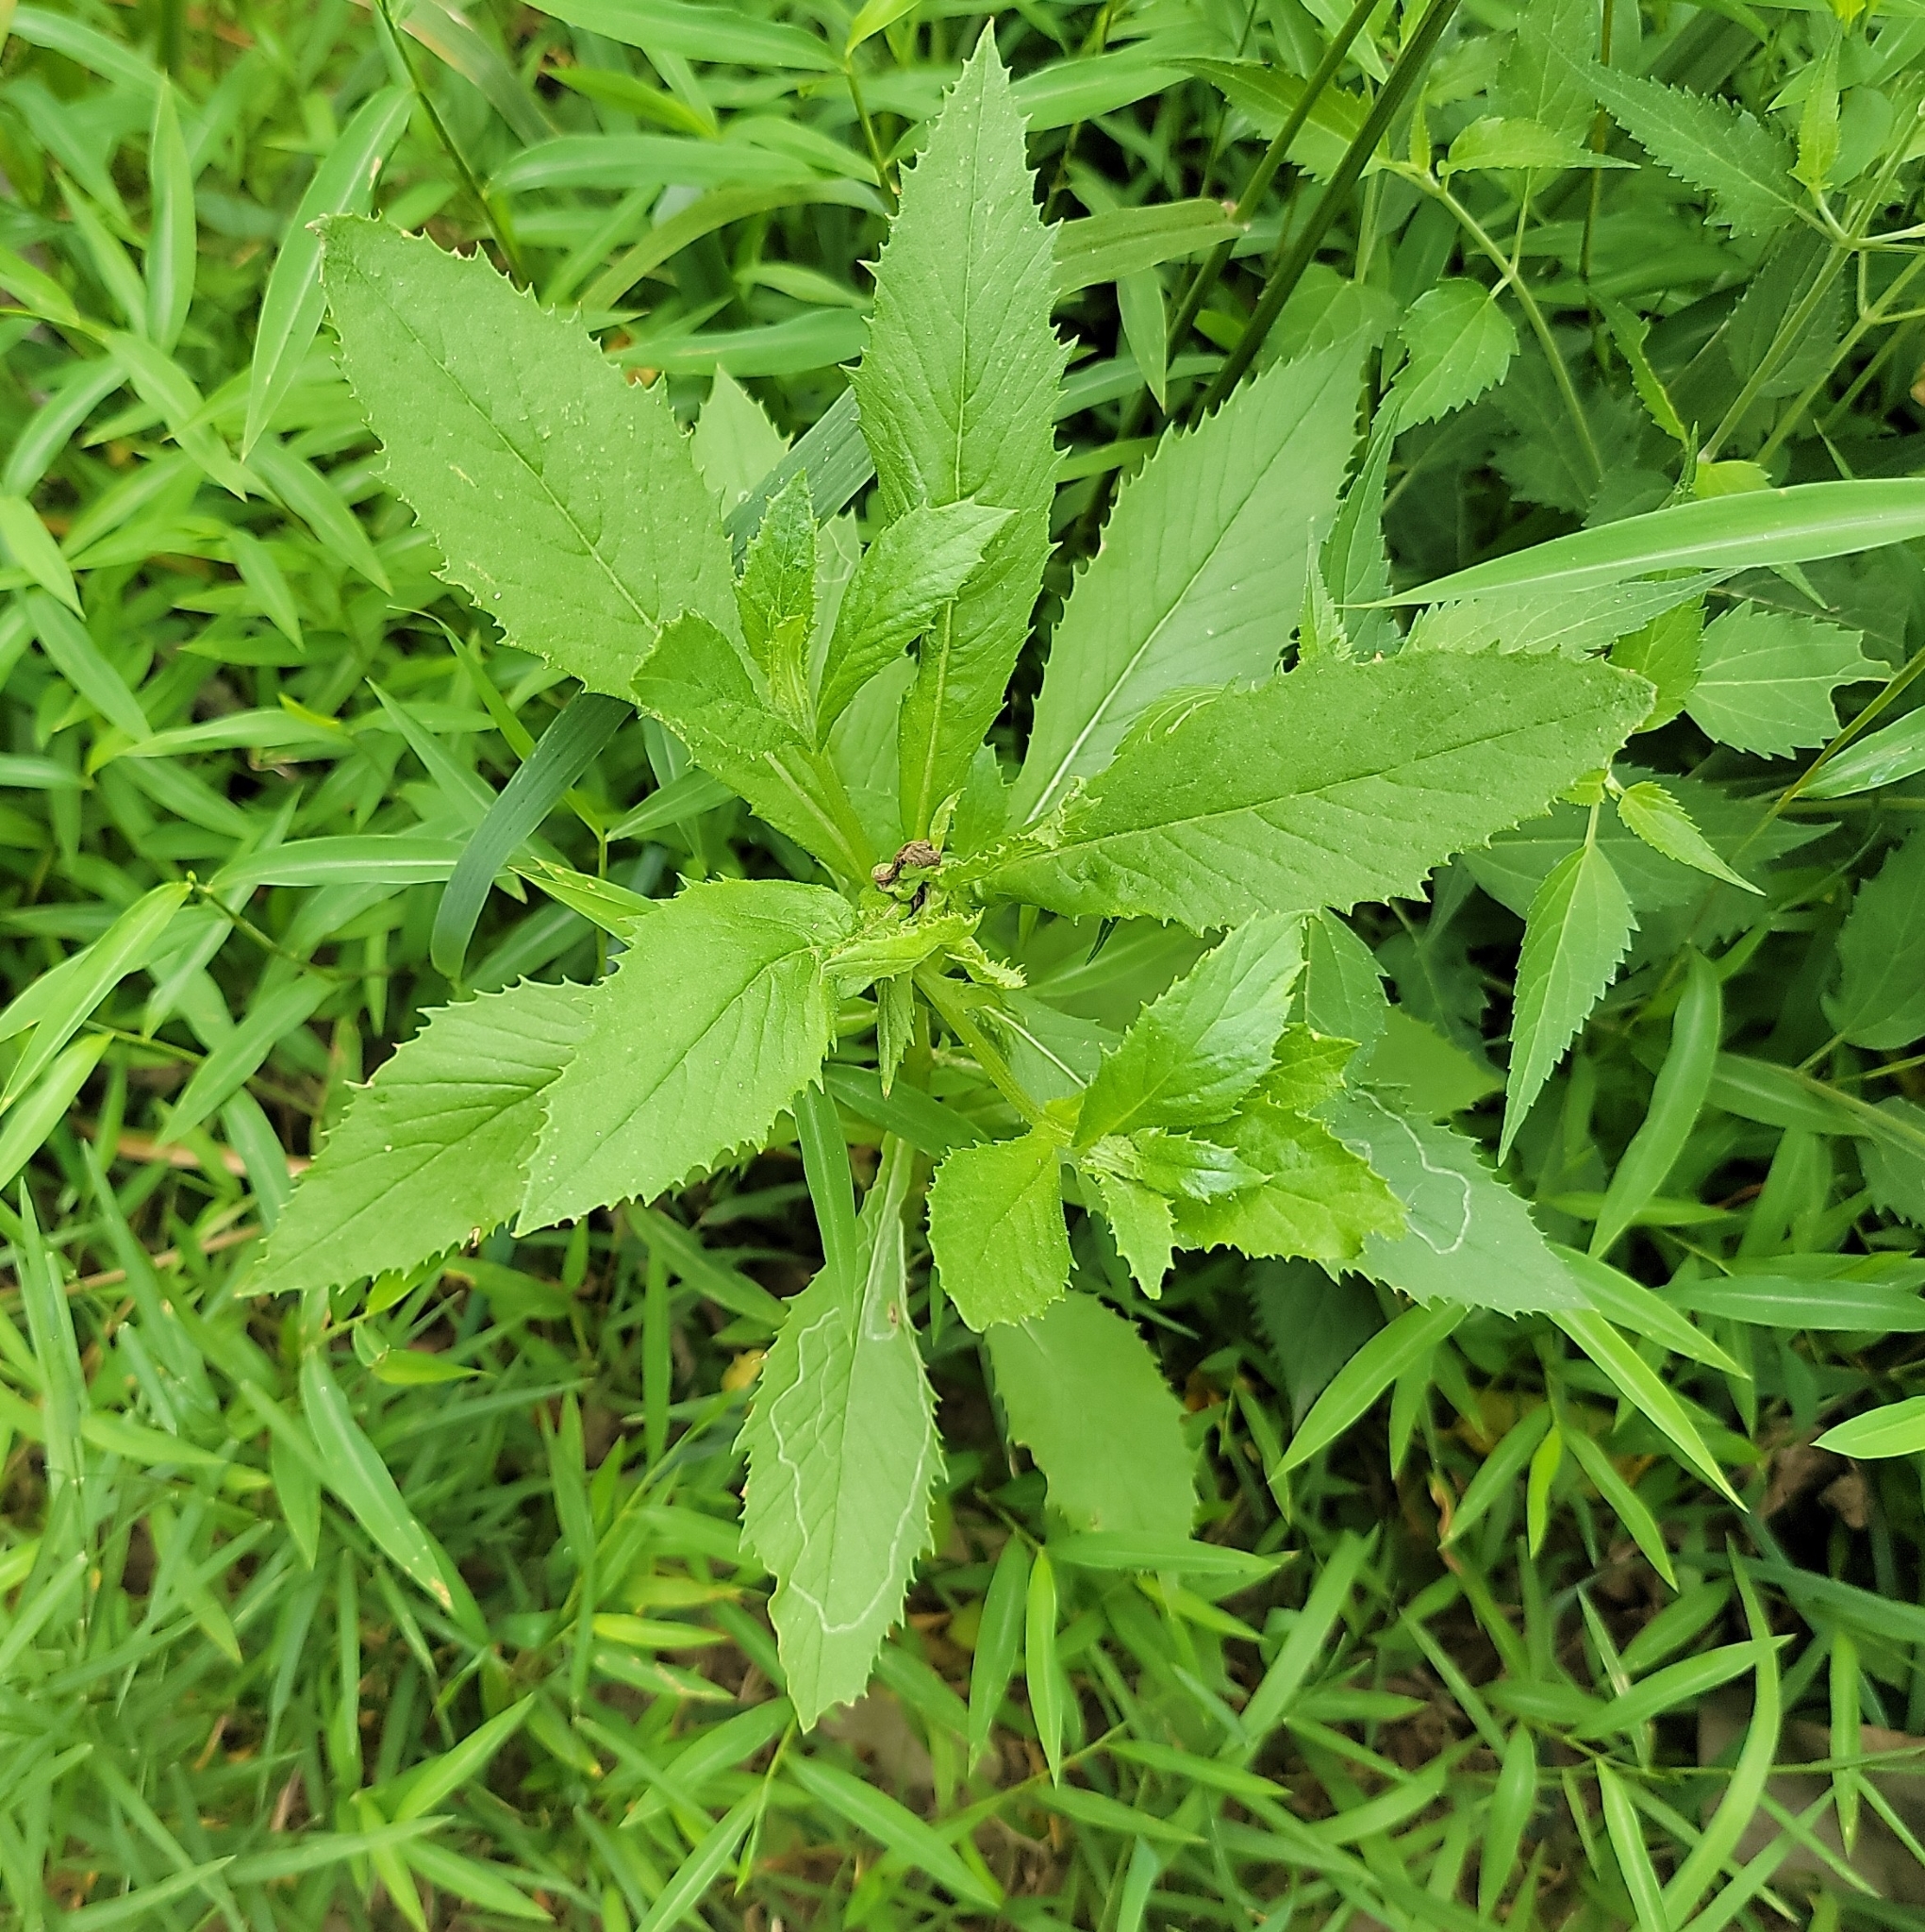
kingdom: Plantae
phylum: Tracheophyta
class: Magnoliopsida
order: Asterales
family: Asteraceae
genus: Erechtites
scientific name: Erechtites hieraciifolius
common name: American burnweed
